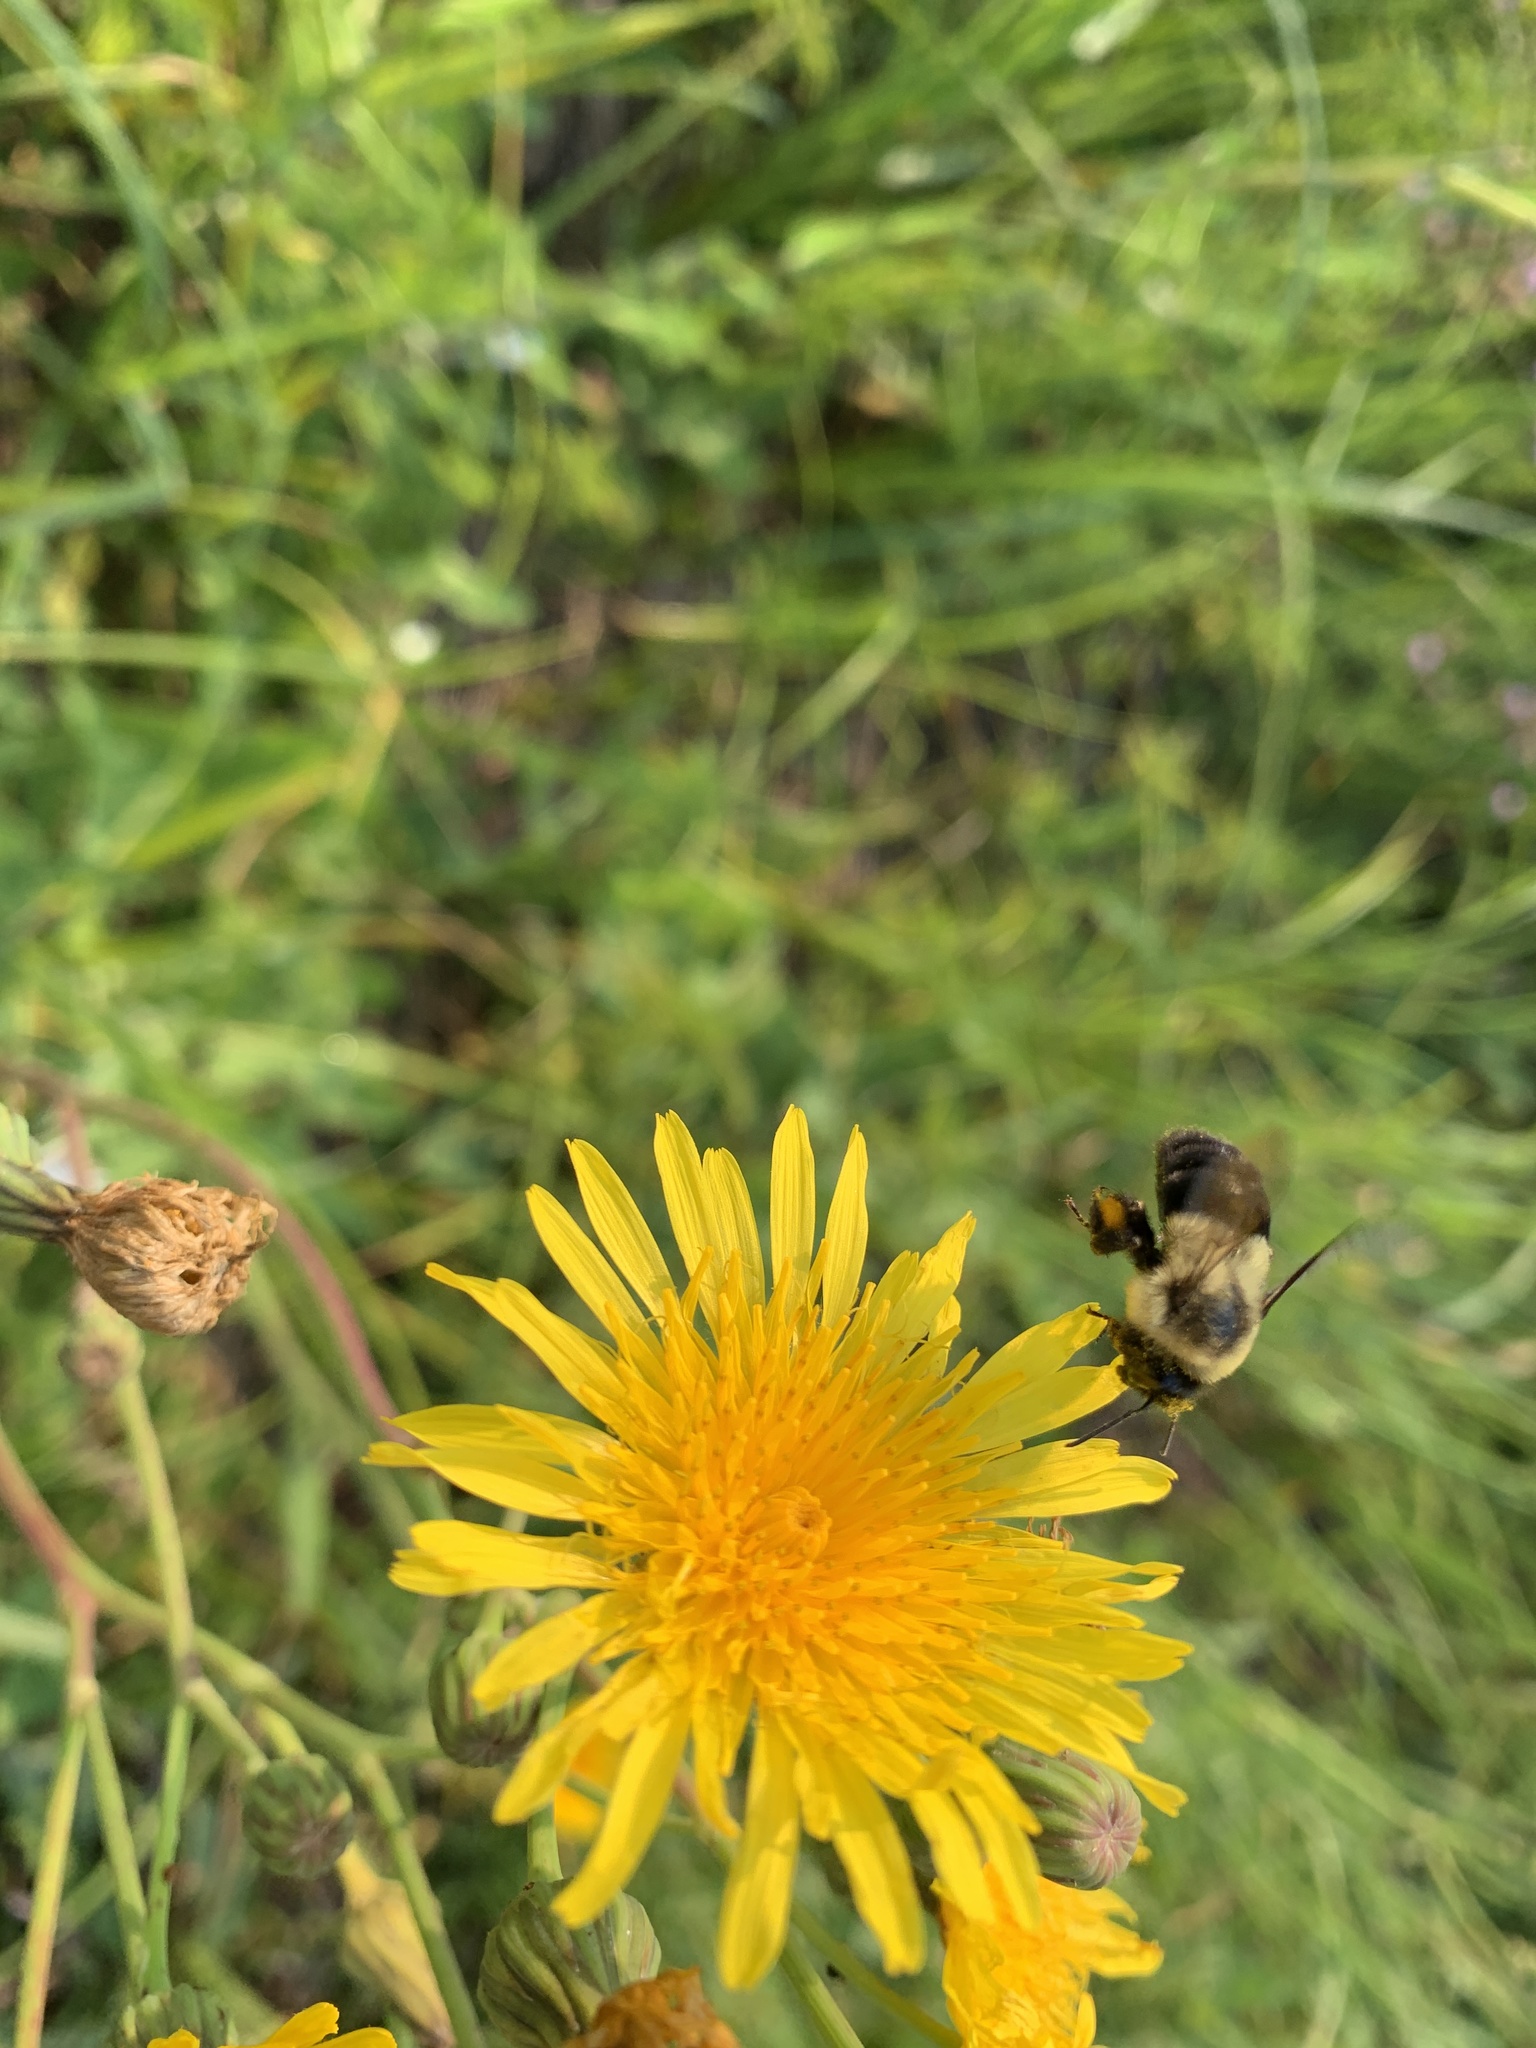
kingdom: Animalia
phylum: Arthropoda
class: Insecta
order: Hymenoptera
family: Apidae
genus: Bombus
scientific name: Bombus impatiens
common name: Common eastern bumble bee
